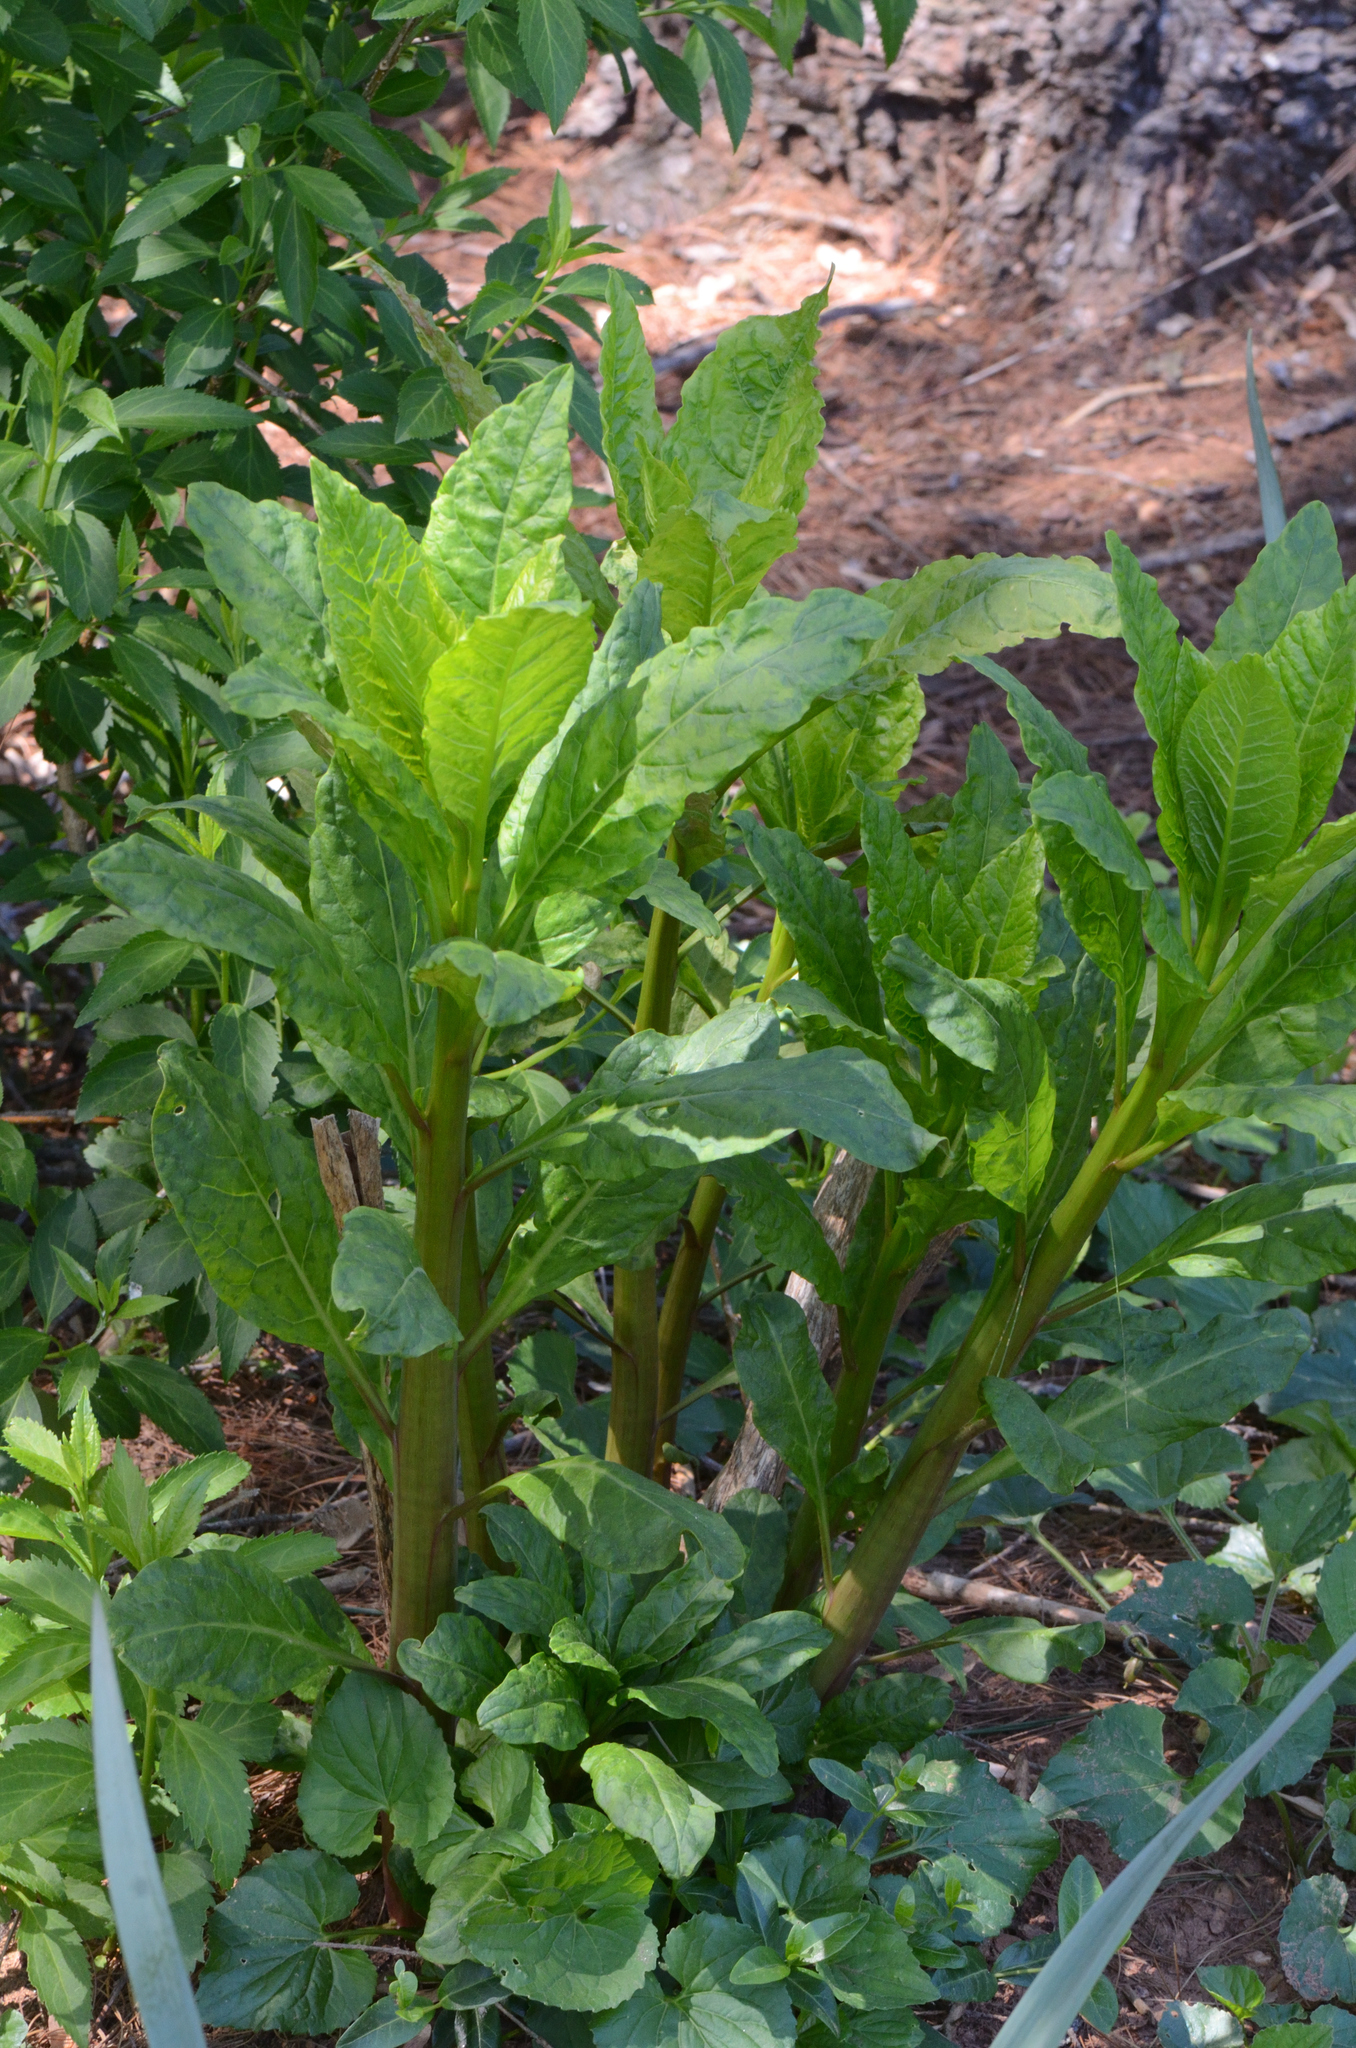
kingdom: Plantae
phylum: Tracheophyta
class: Magnoliopsida
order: Caryophyllales
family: Phytolaccaceae
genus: Phytolacca
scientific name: Phytolacca americana
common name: American pokeweed
